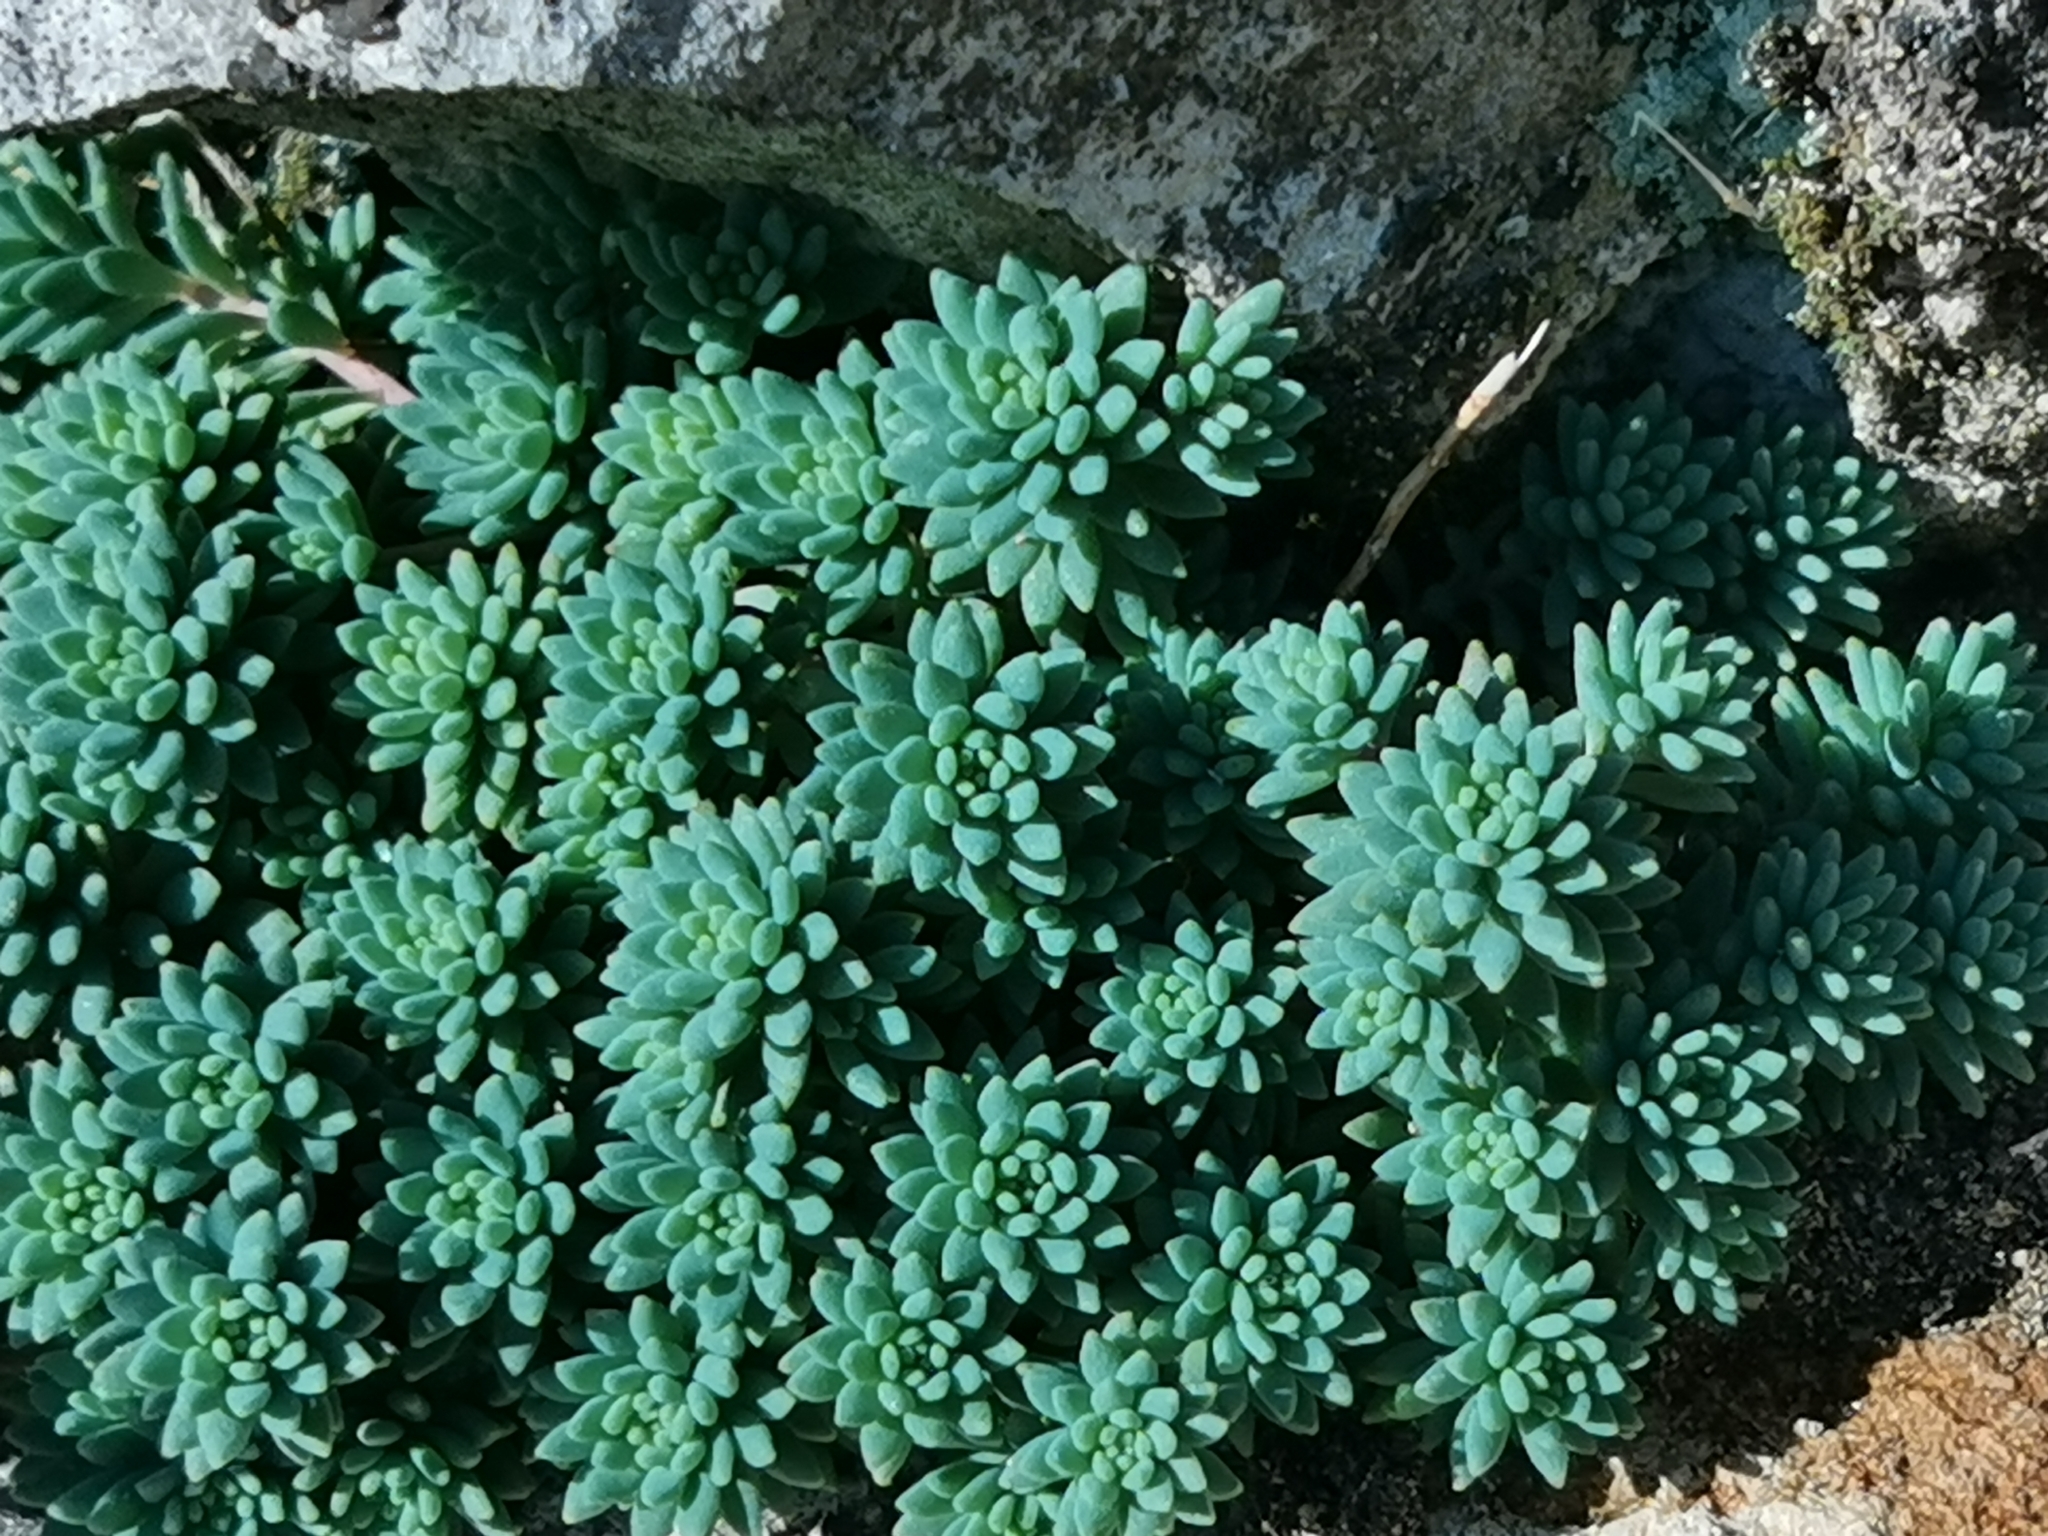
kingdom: Plantae
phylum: Tracheophyta
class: Magnoliopsida
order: Saxifragales
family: Crassulaceae
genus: Sedum
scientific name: Sedum pallidum
